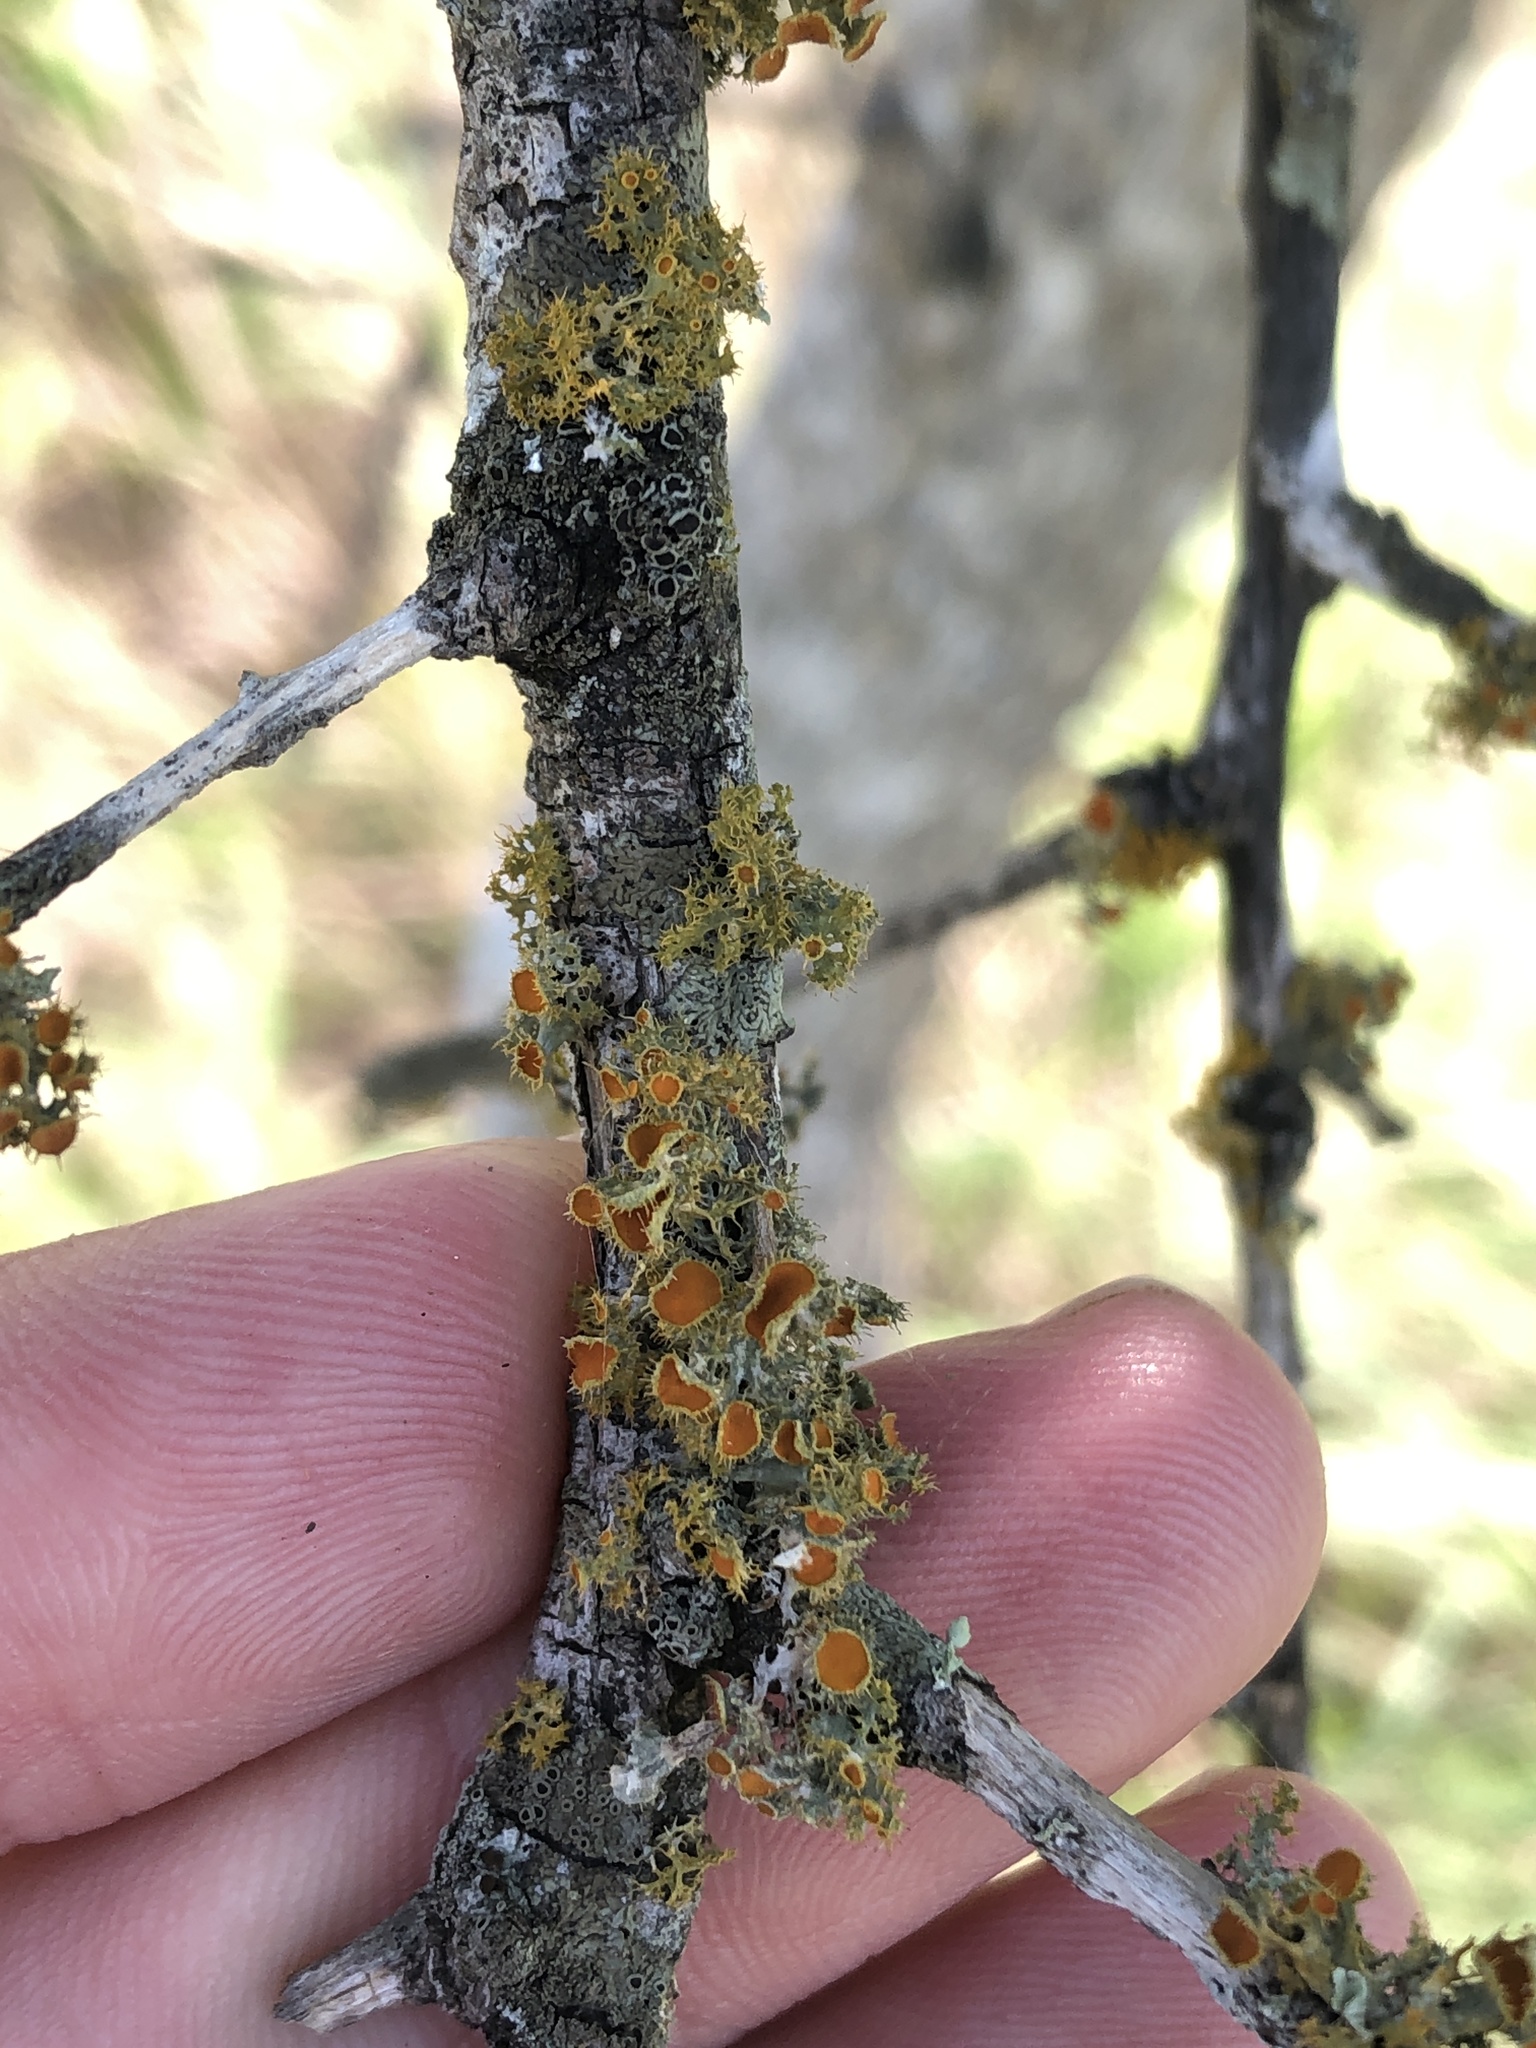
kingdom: Fungi
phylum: Ascomycota
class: Lecanoromycetes
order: Teloschistales
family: Teloschistaceae
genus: Niorma
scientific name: Niorma chrysophthalma
